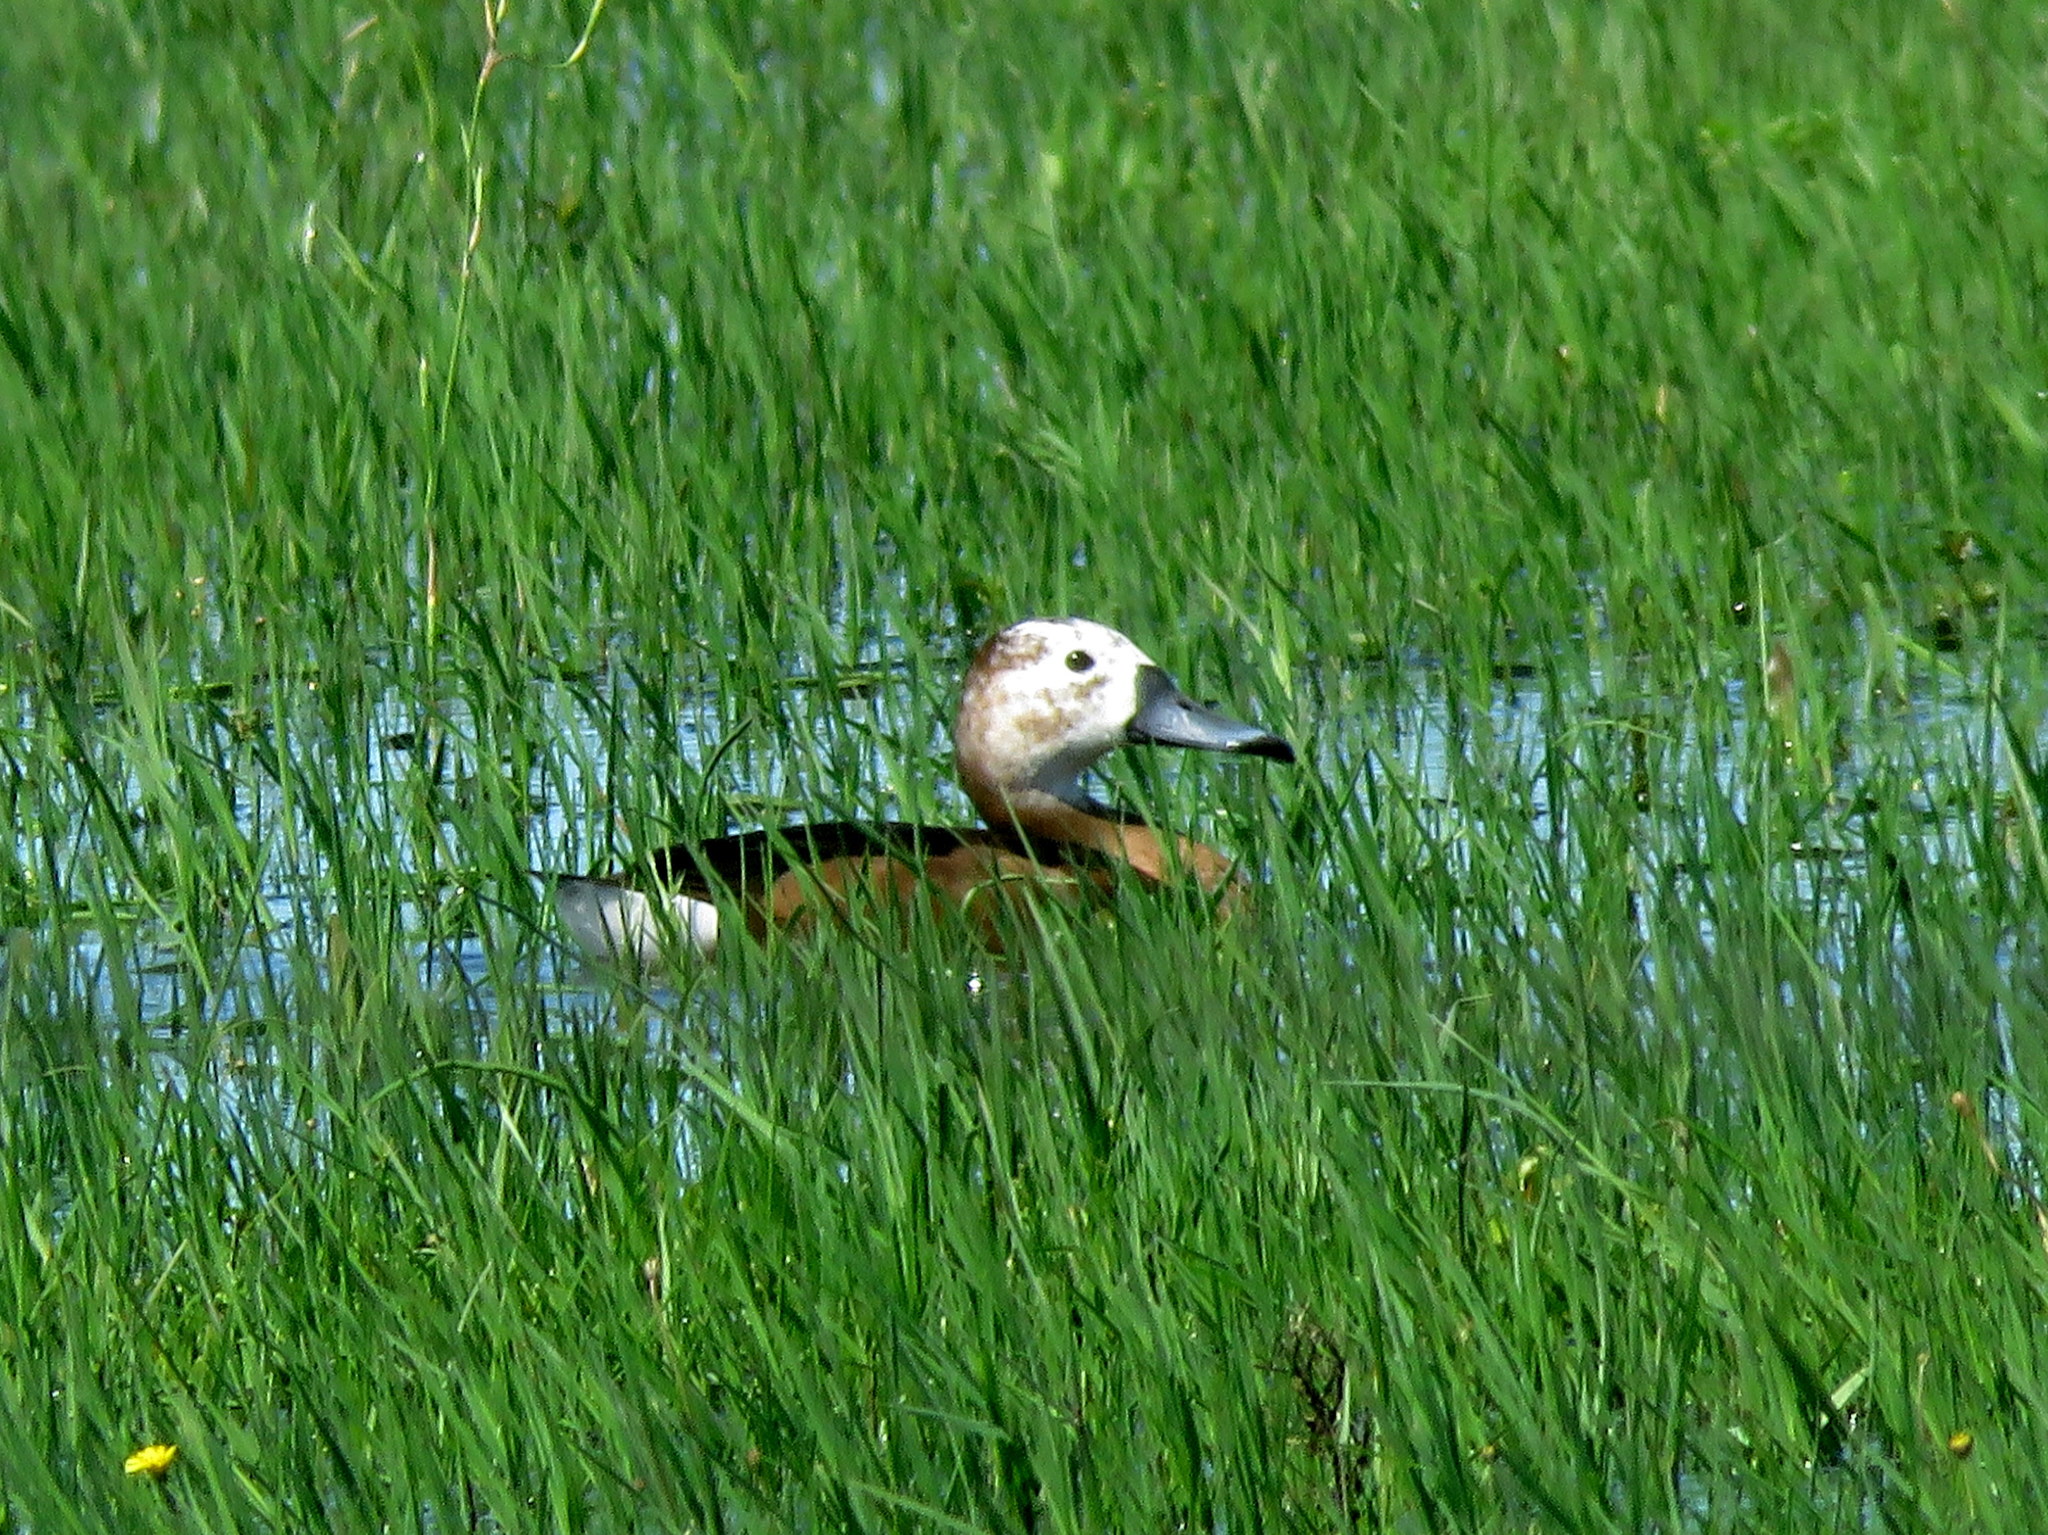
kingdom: Animalia
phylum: Chordata
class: Aves
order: Anseriformes
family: Anatidae
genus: Netta
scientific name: Netta peposaca
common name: Rosy-billed pochard
